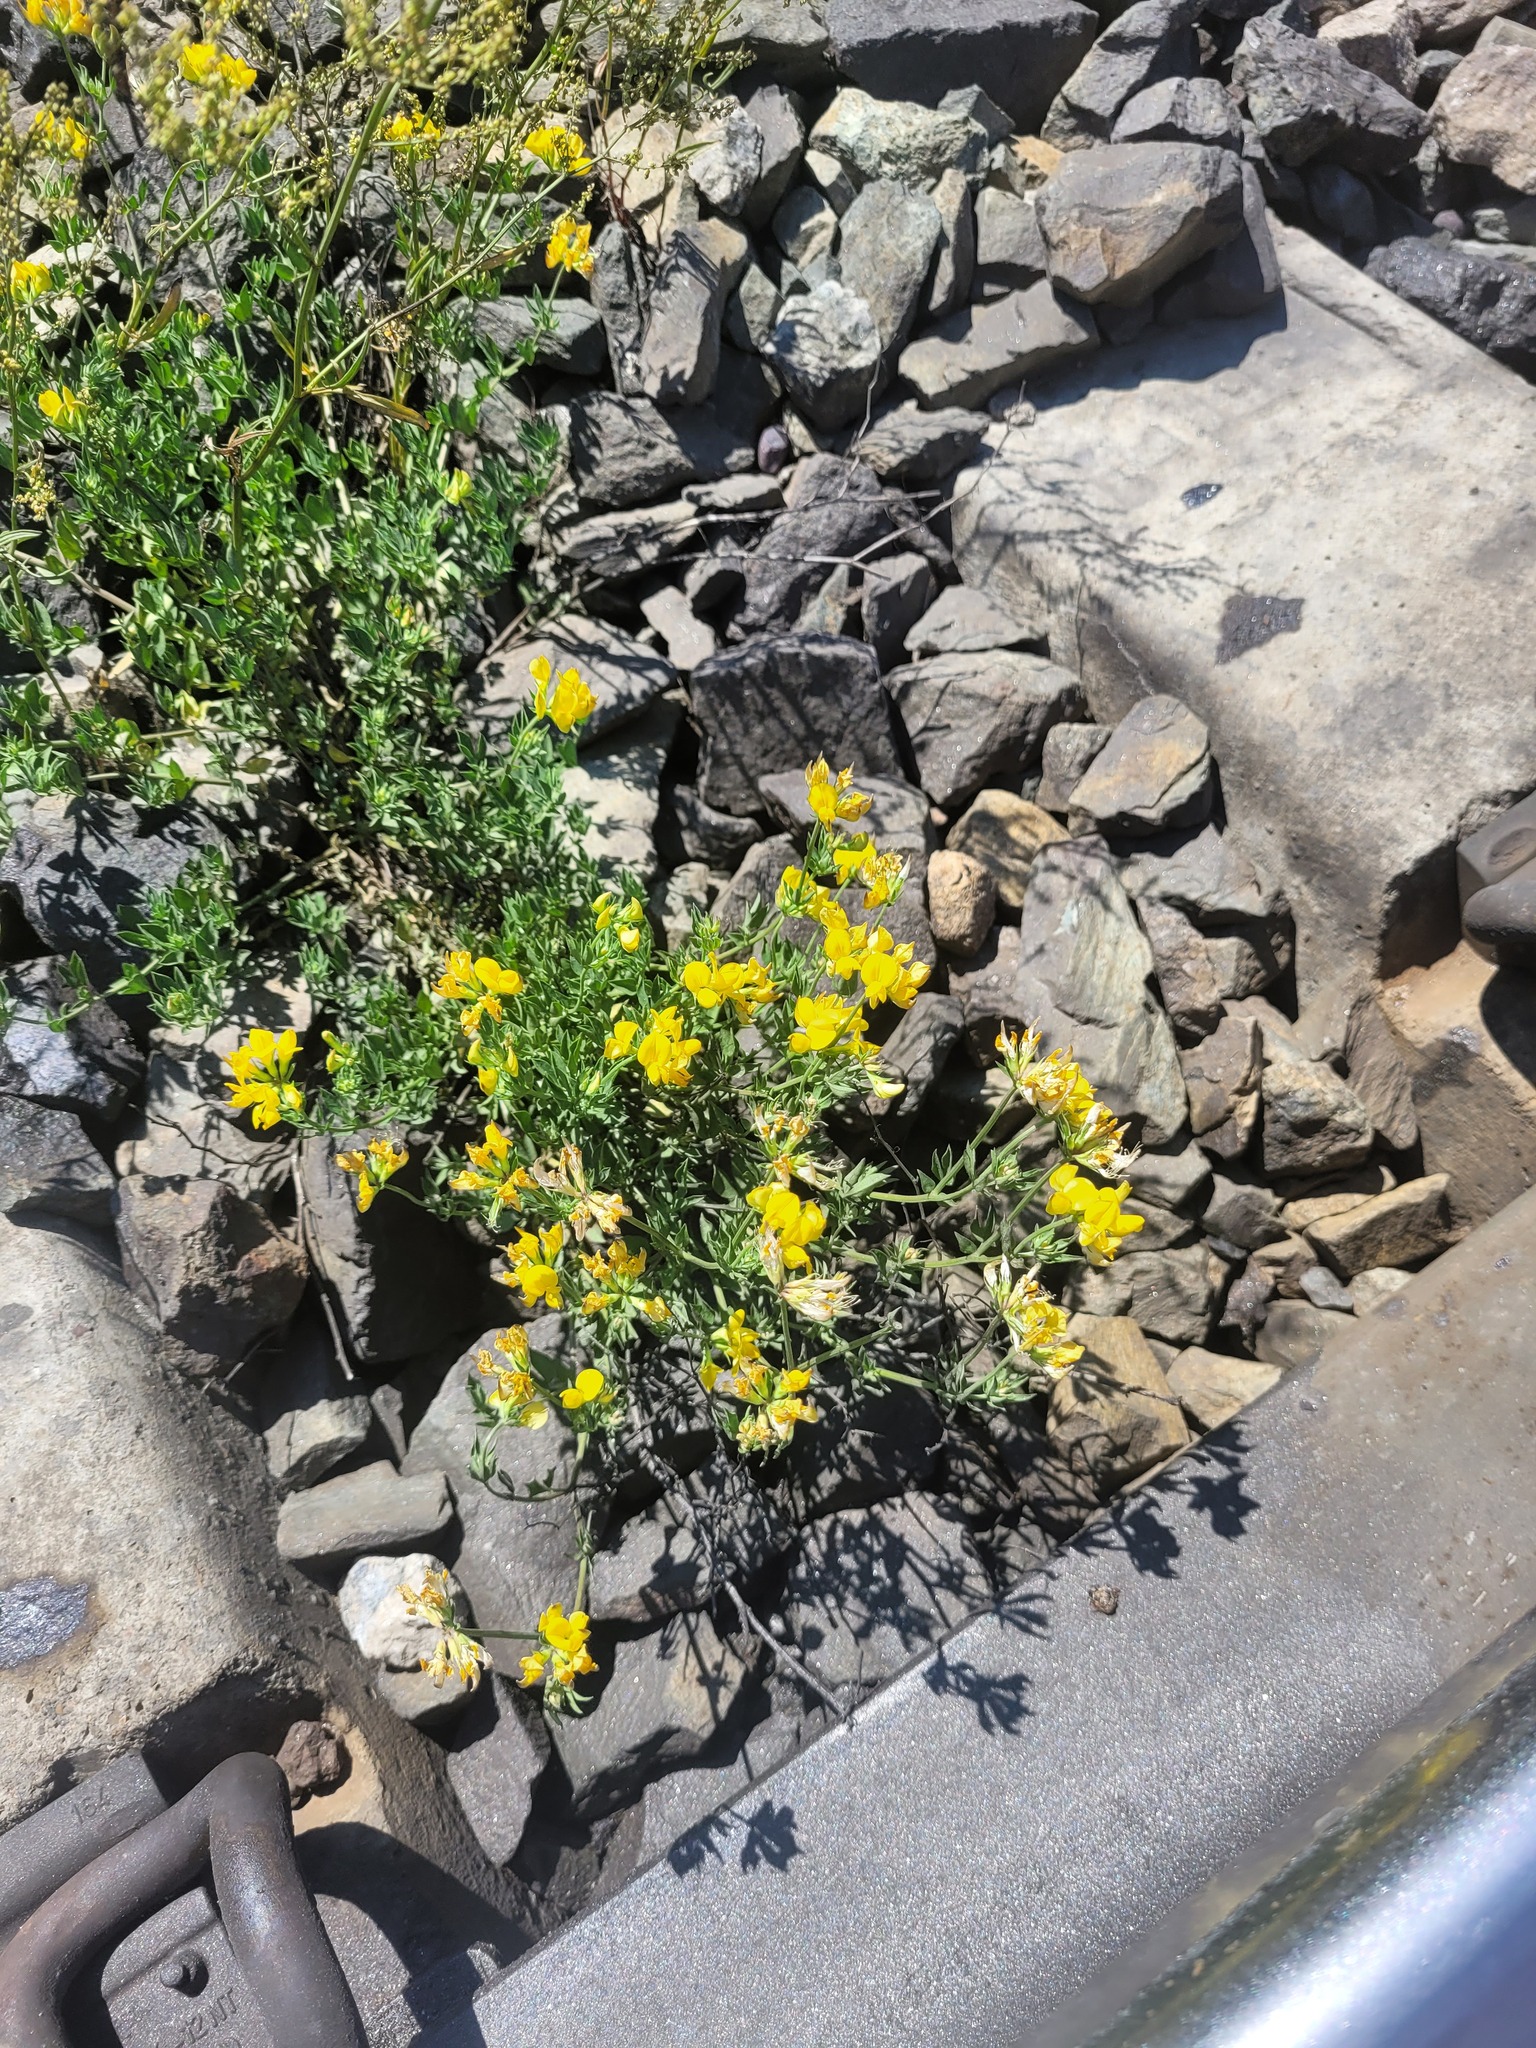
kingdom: Plantae
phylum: Tracheophyta
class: Magnoliopsida
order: Fabales
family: Fabaceae
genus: Lotus
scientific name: Lotus corniculatus
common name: Common bird's-foot-trefoil
